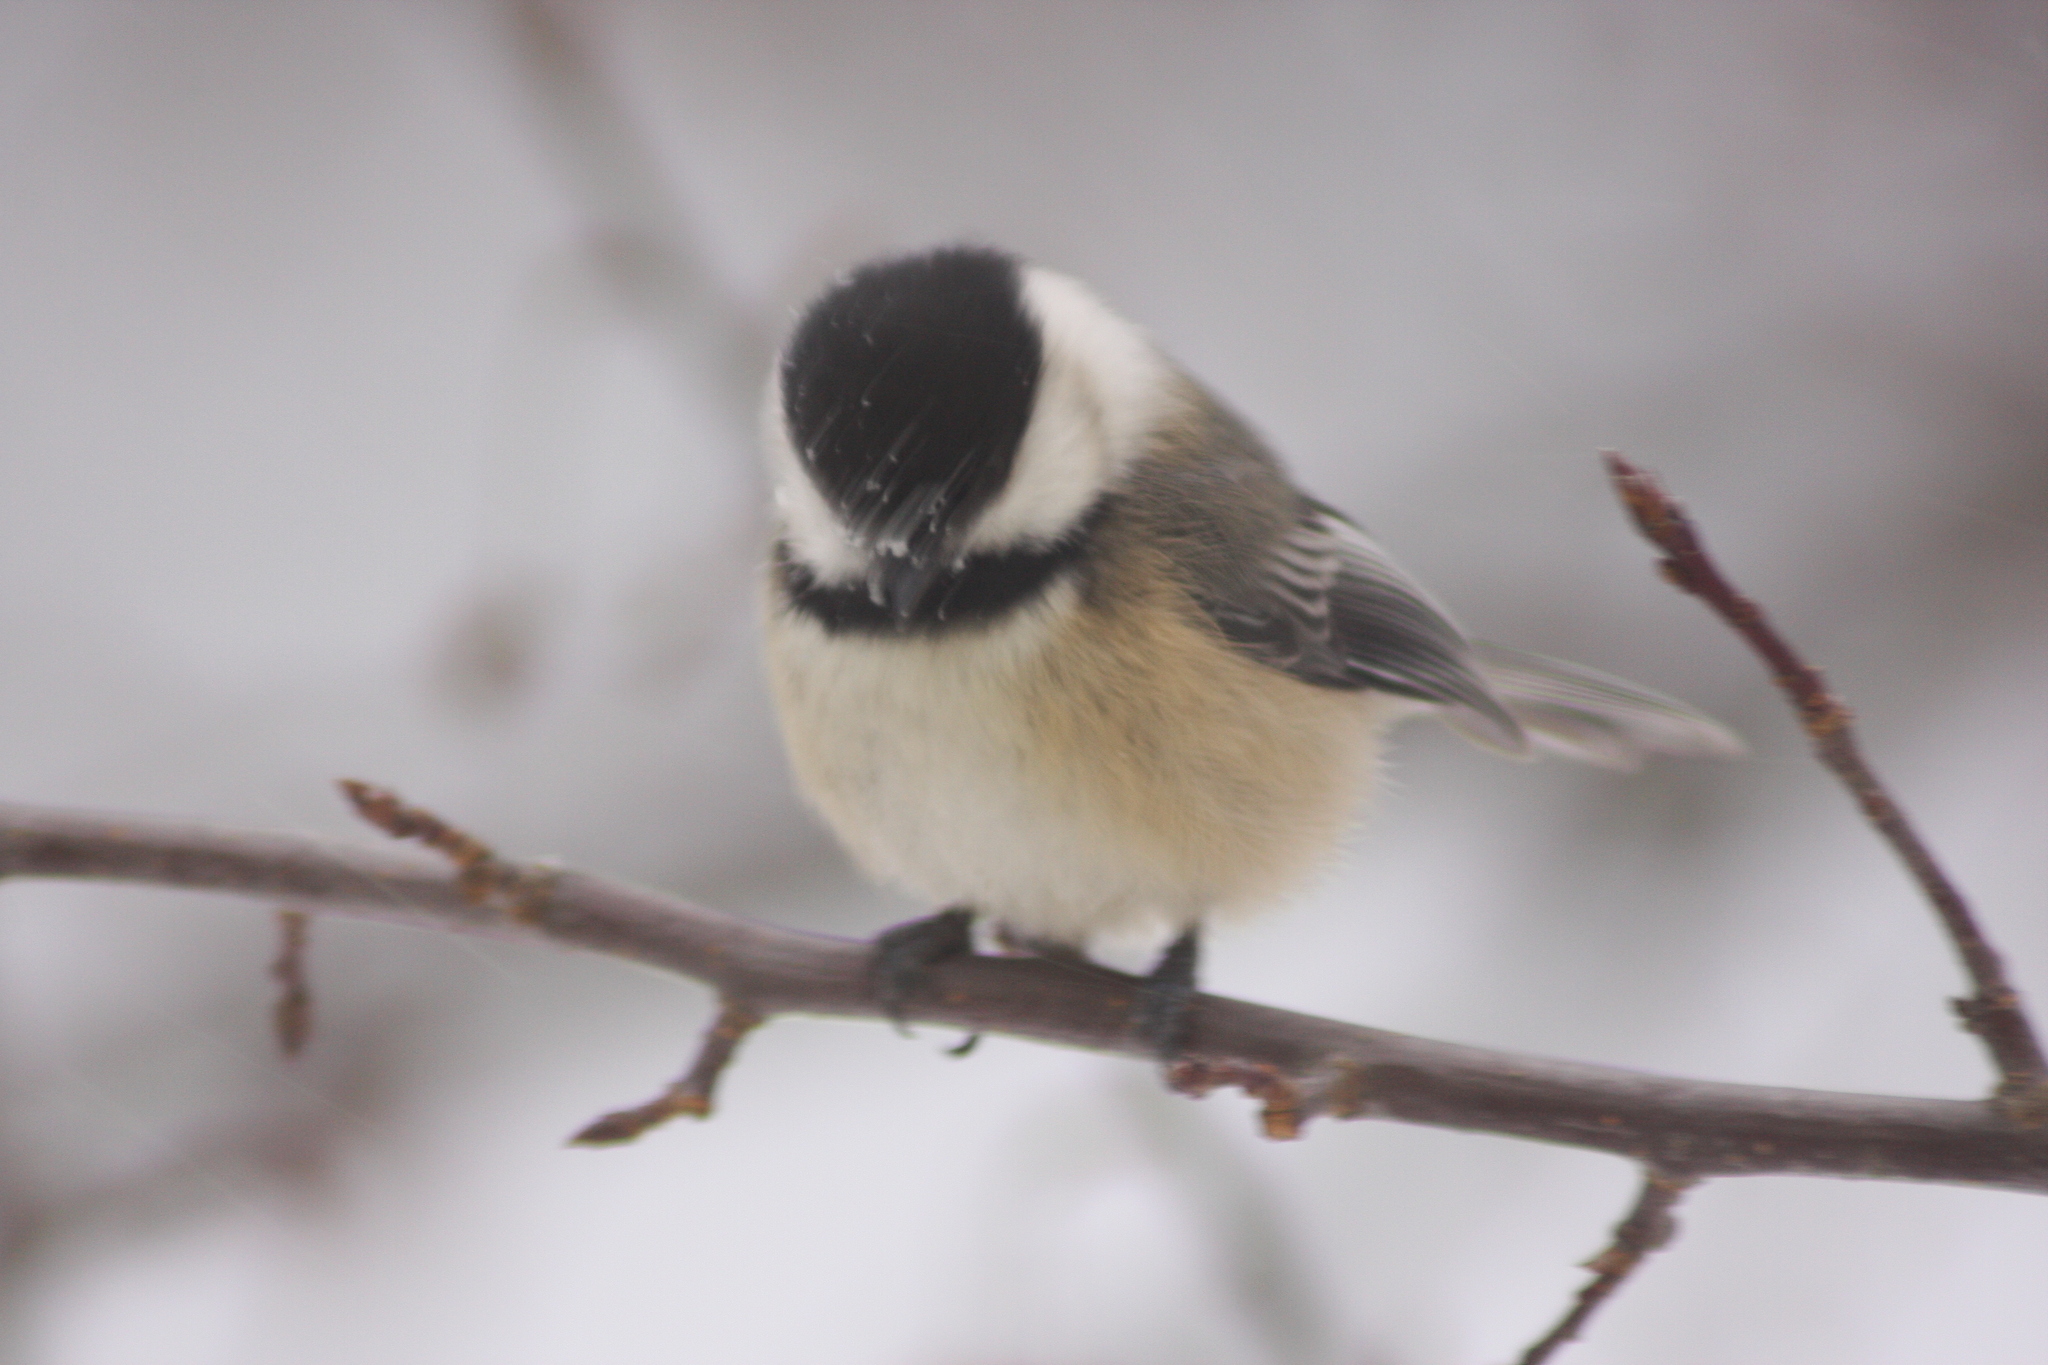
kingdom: Animalia
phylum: Chordata
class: Aves
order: Passeriformes
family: Paridae
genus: Poecile
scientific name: Poecile atricapillus
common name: Black-capped chickadee
